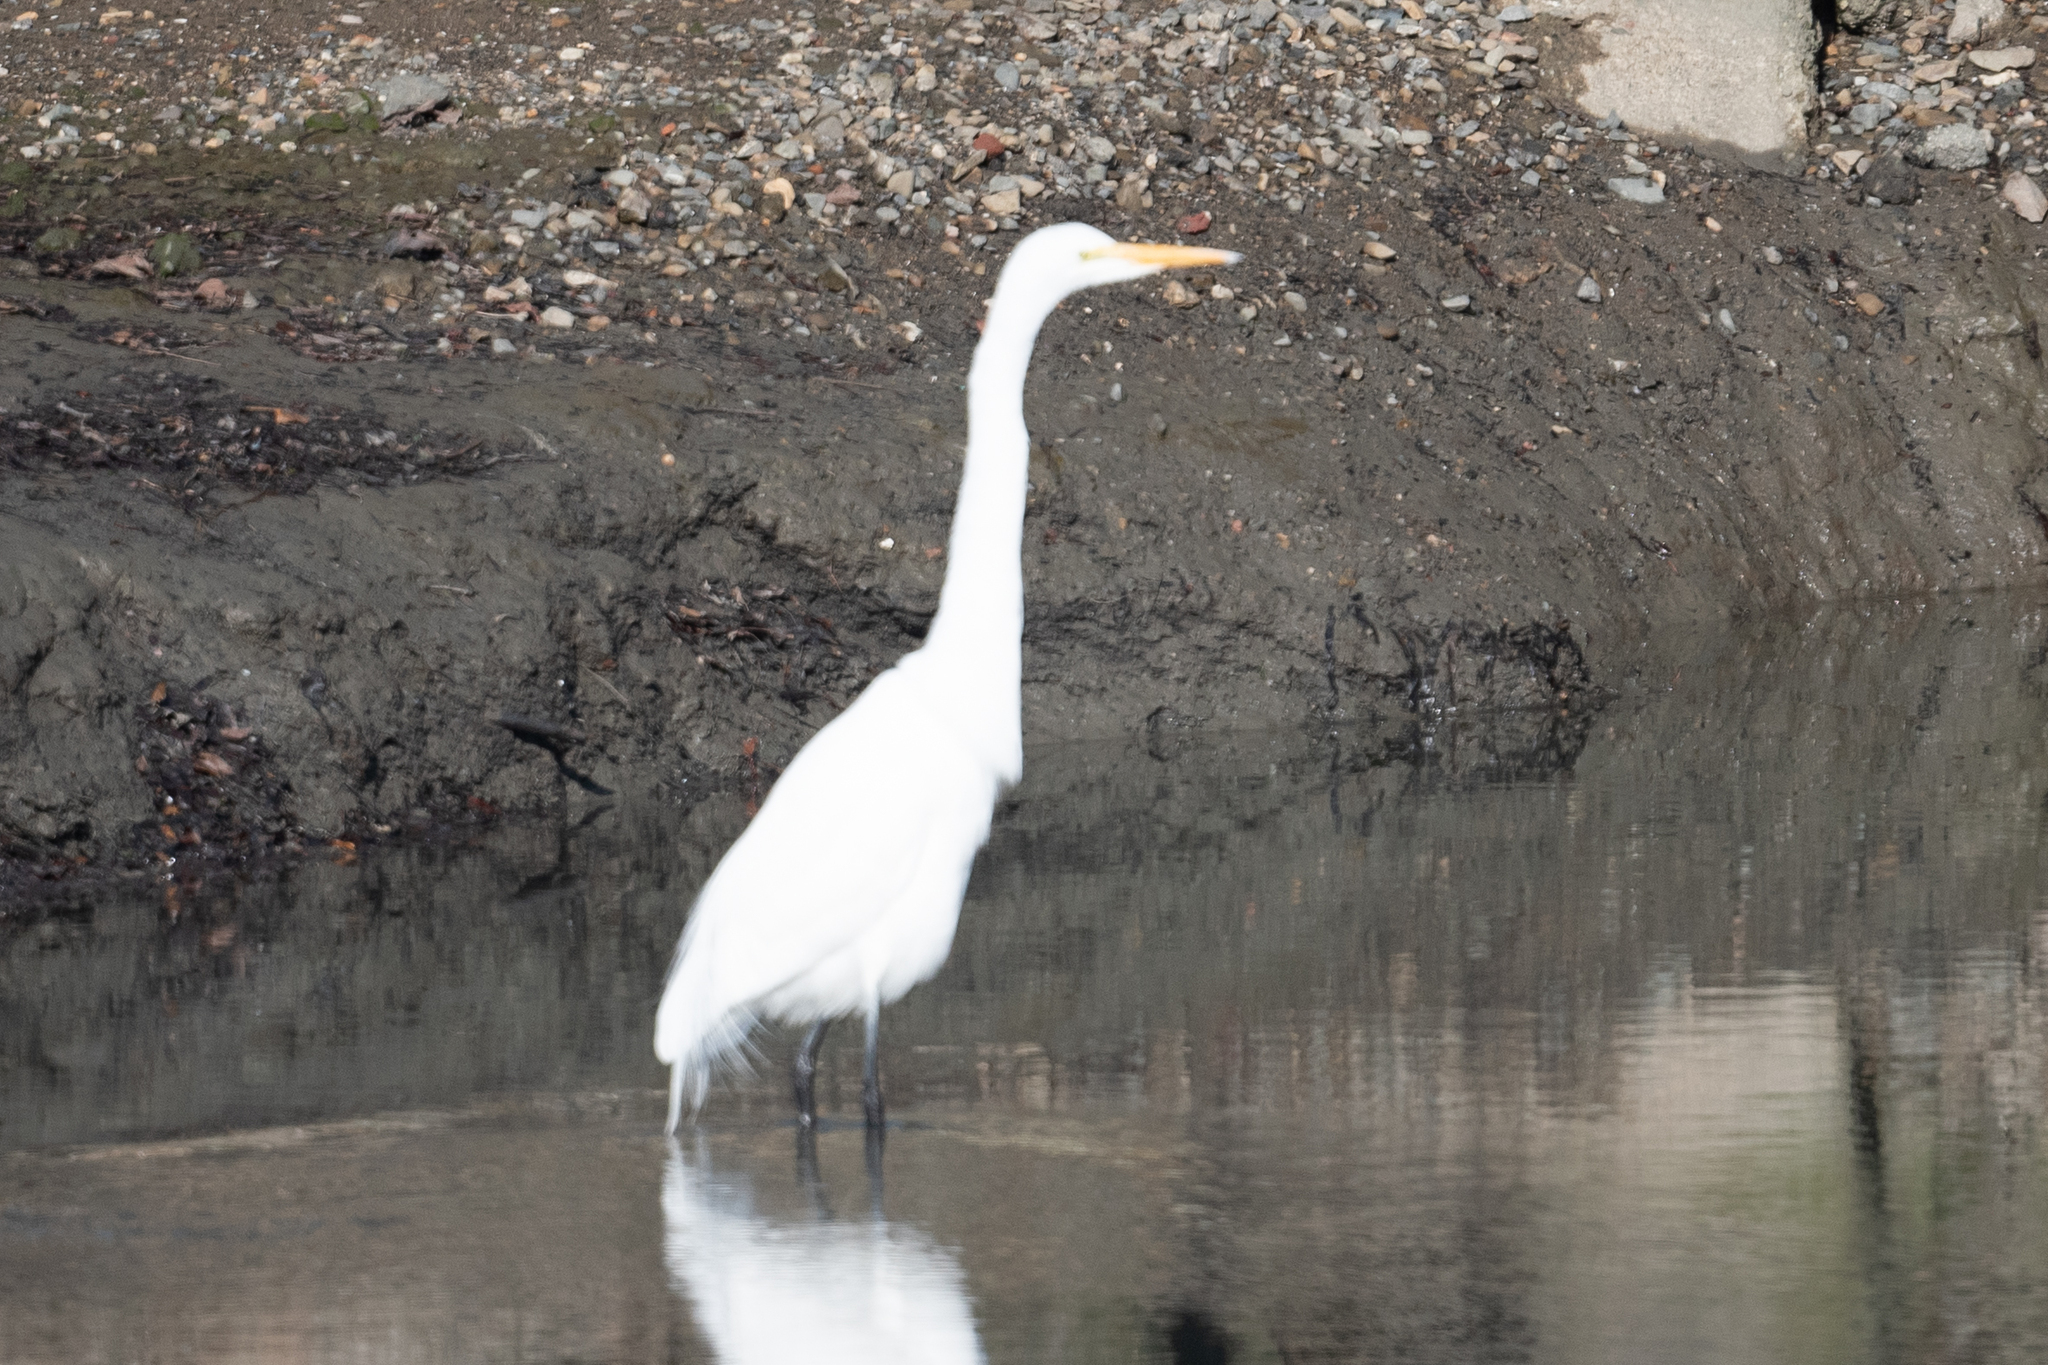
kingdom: Animalia
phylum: Chordata
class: Aves
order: Pelecaniformes
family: Ardeidae
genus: Ardea
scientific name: Ardea alba
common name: Great egret
